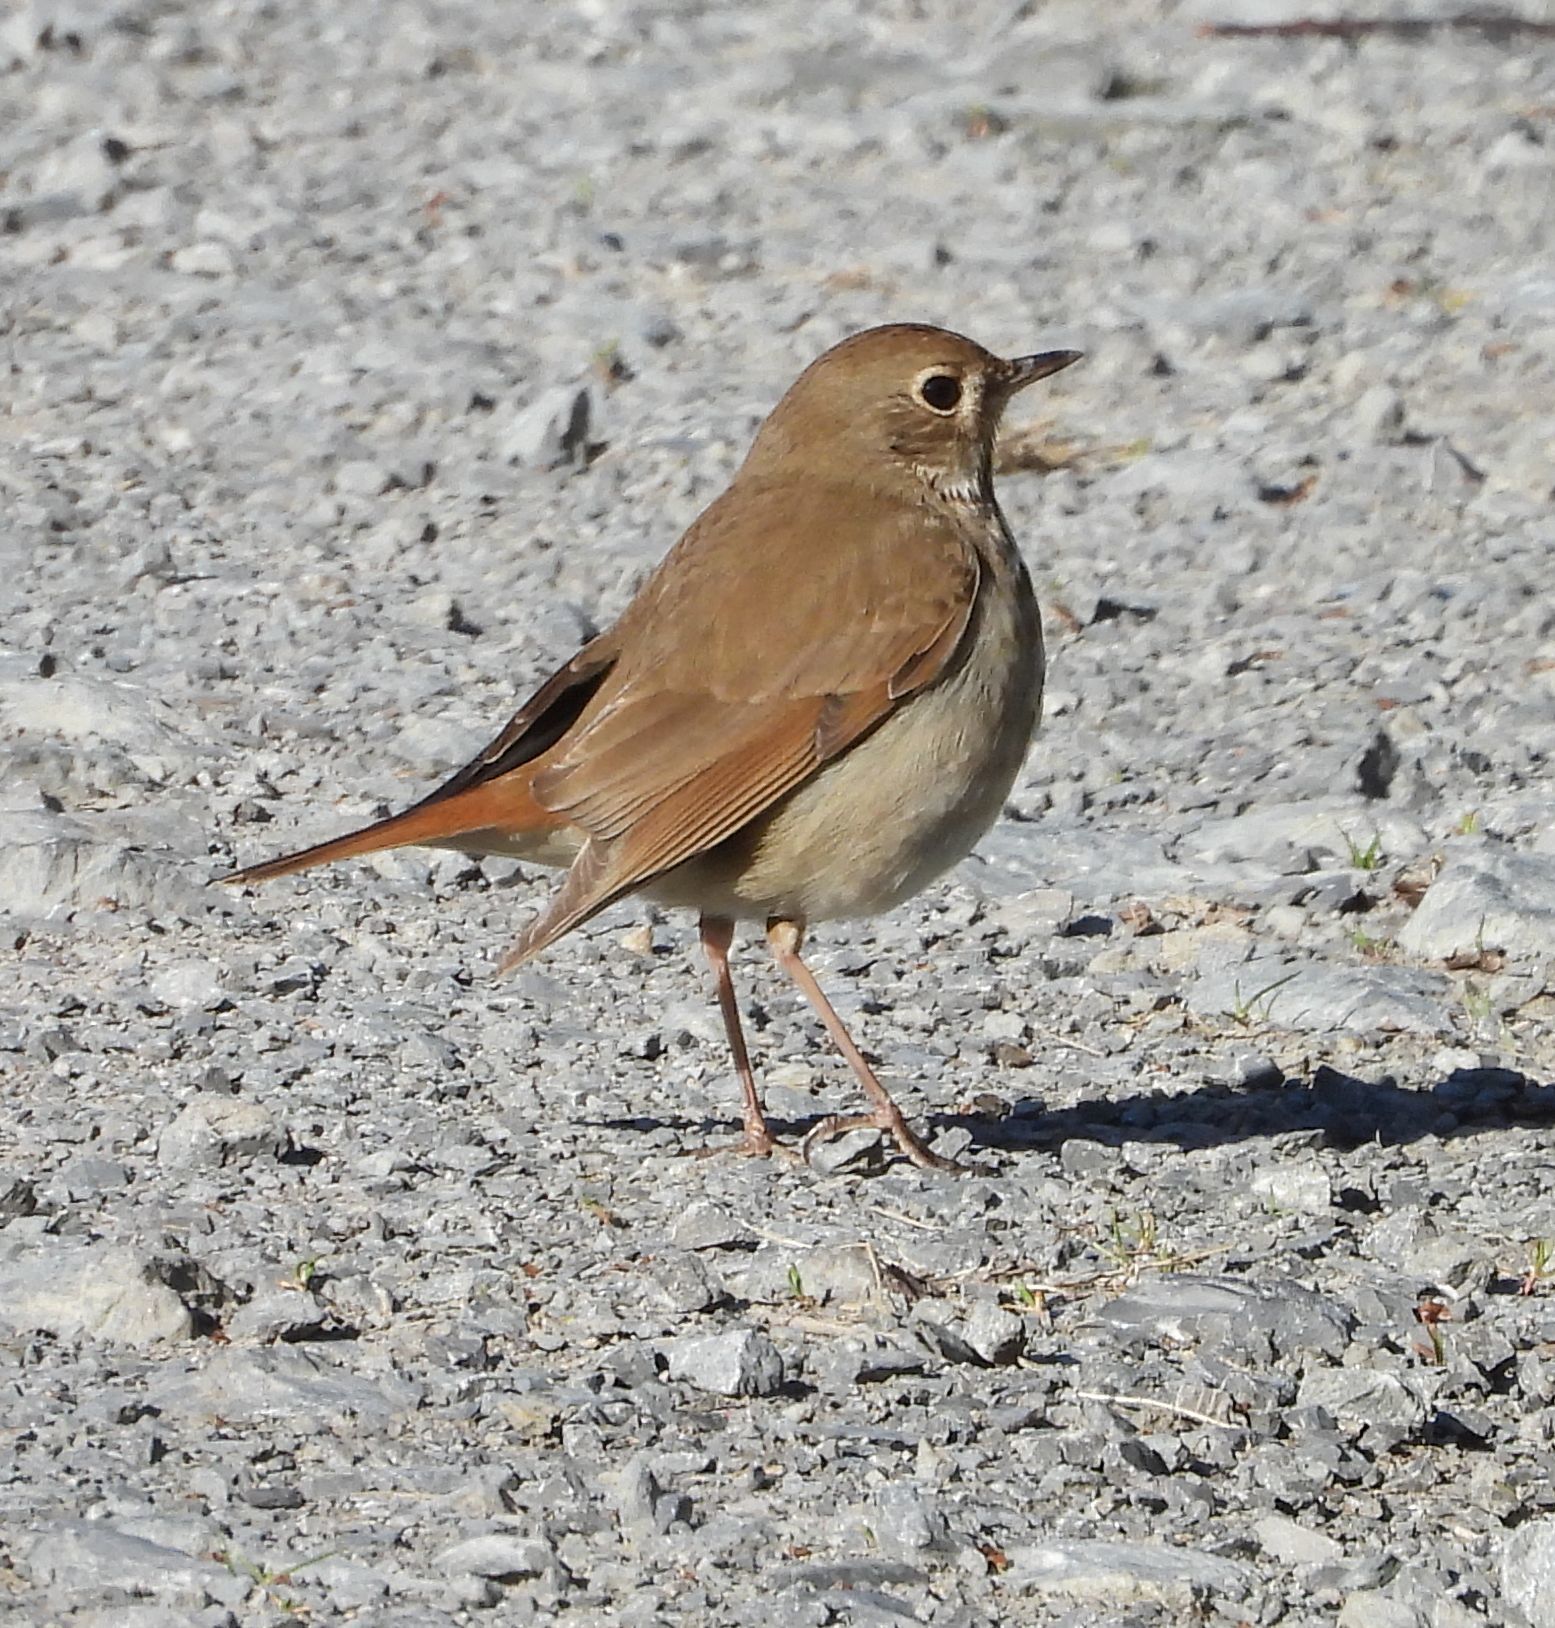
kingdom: Animalia
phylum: Chordata
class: Aves
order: Passeriformes
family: Turdidae
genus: Catharus
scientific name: Catharus guttatus
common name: Hermit thrush
